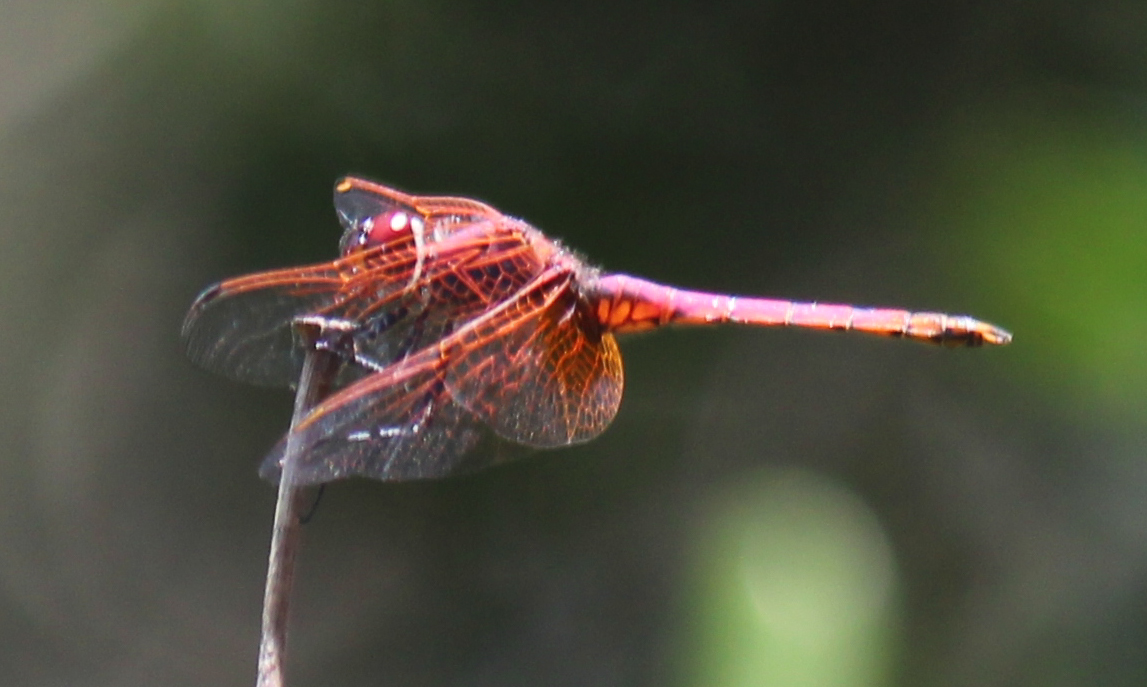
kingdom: Animalia
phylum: Arthropoda
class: Insecta
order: Odonata
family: Libellulidae
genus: Trithemis
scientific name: Trithemis annulata
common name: Violet dropwing
